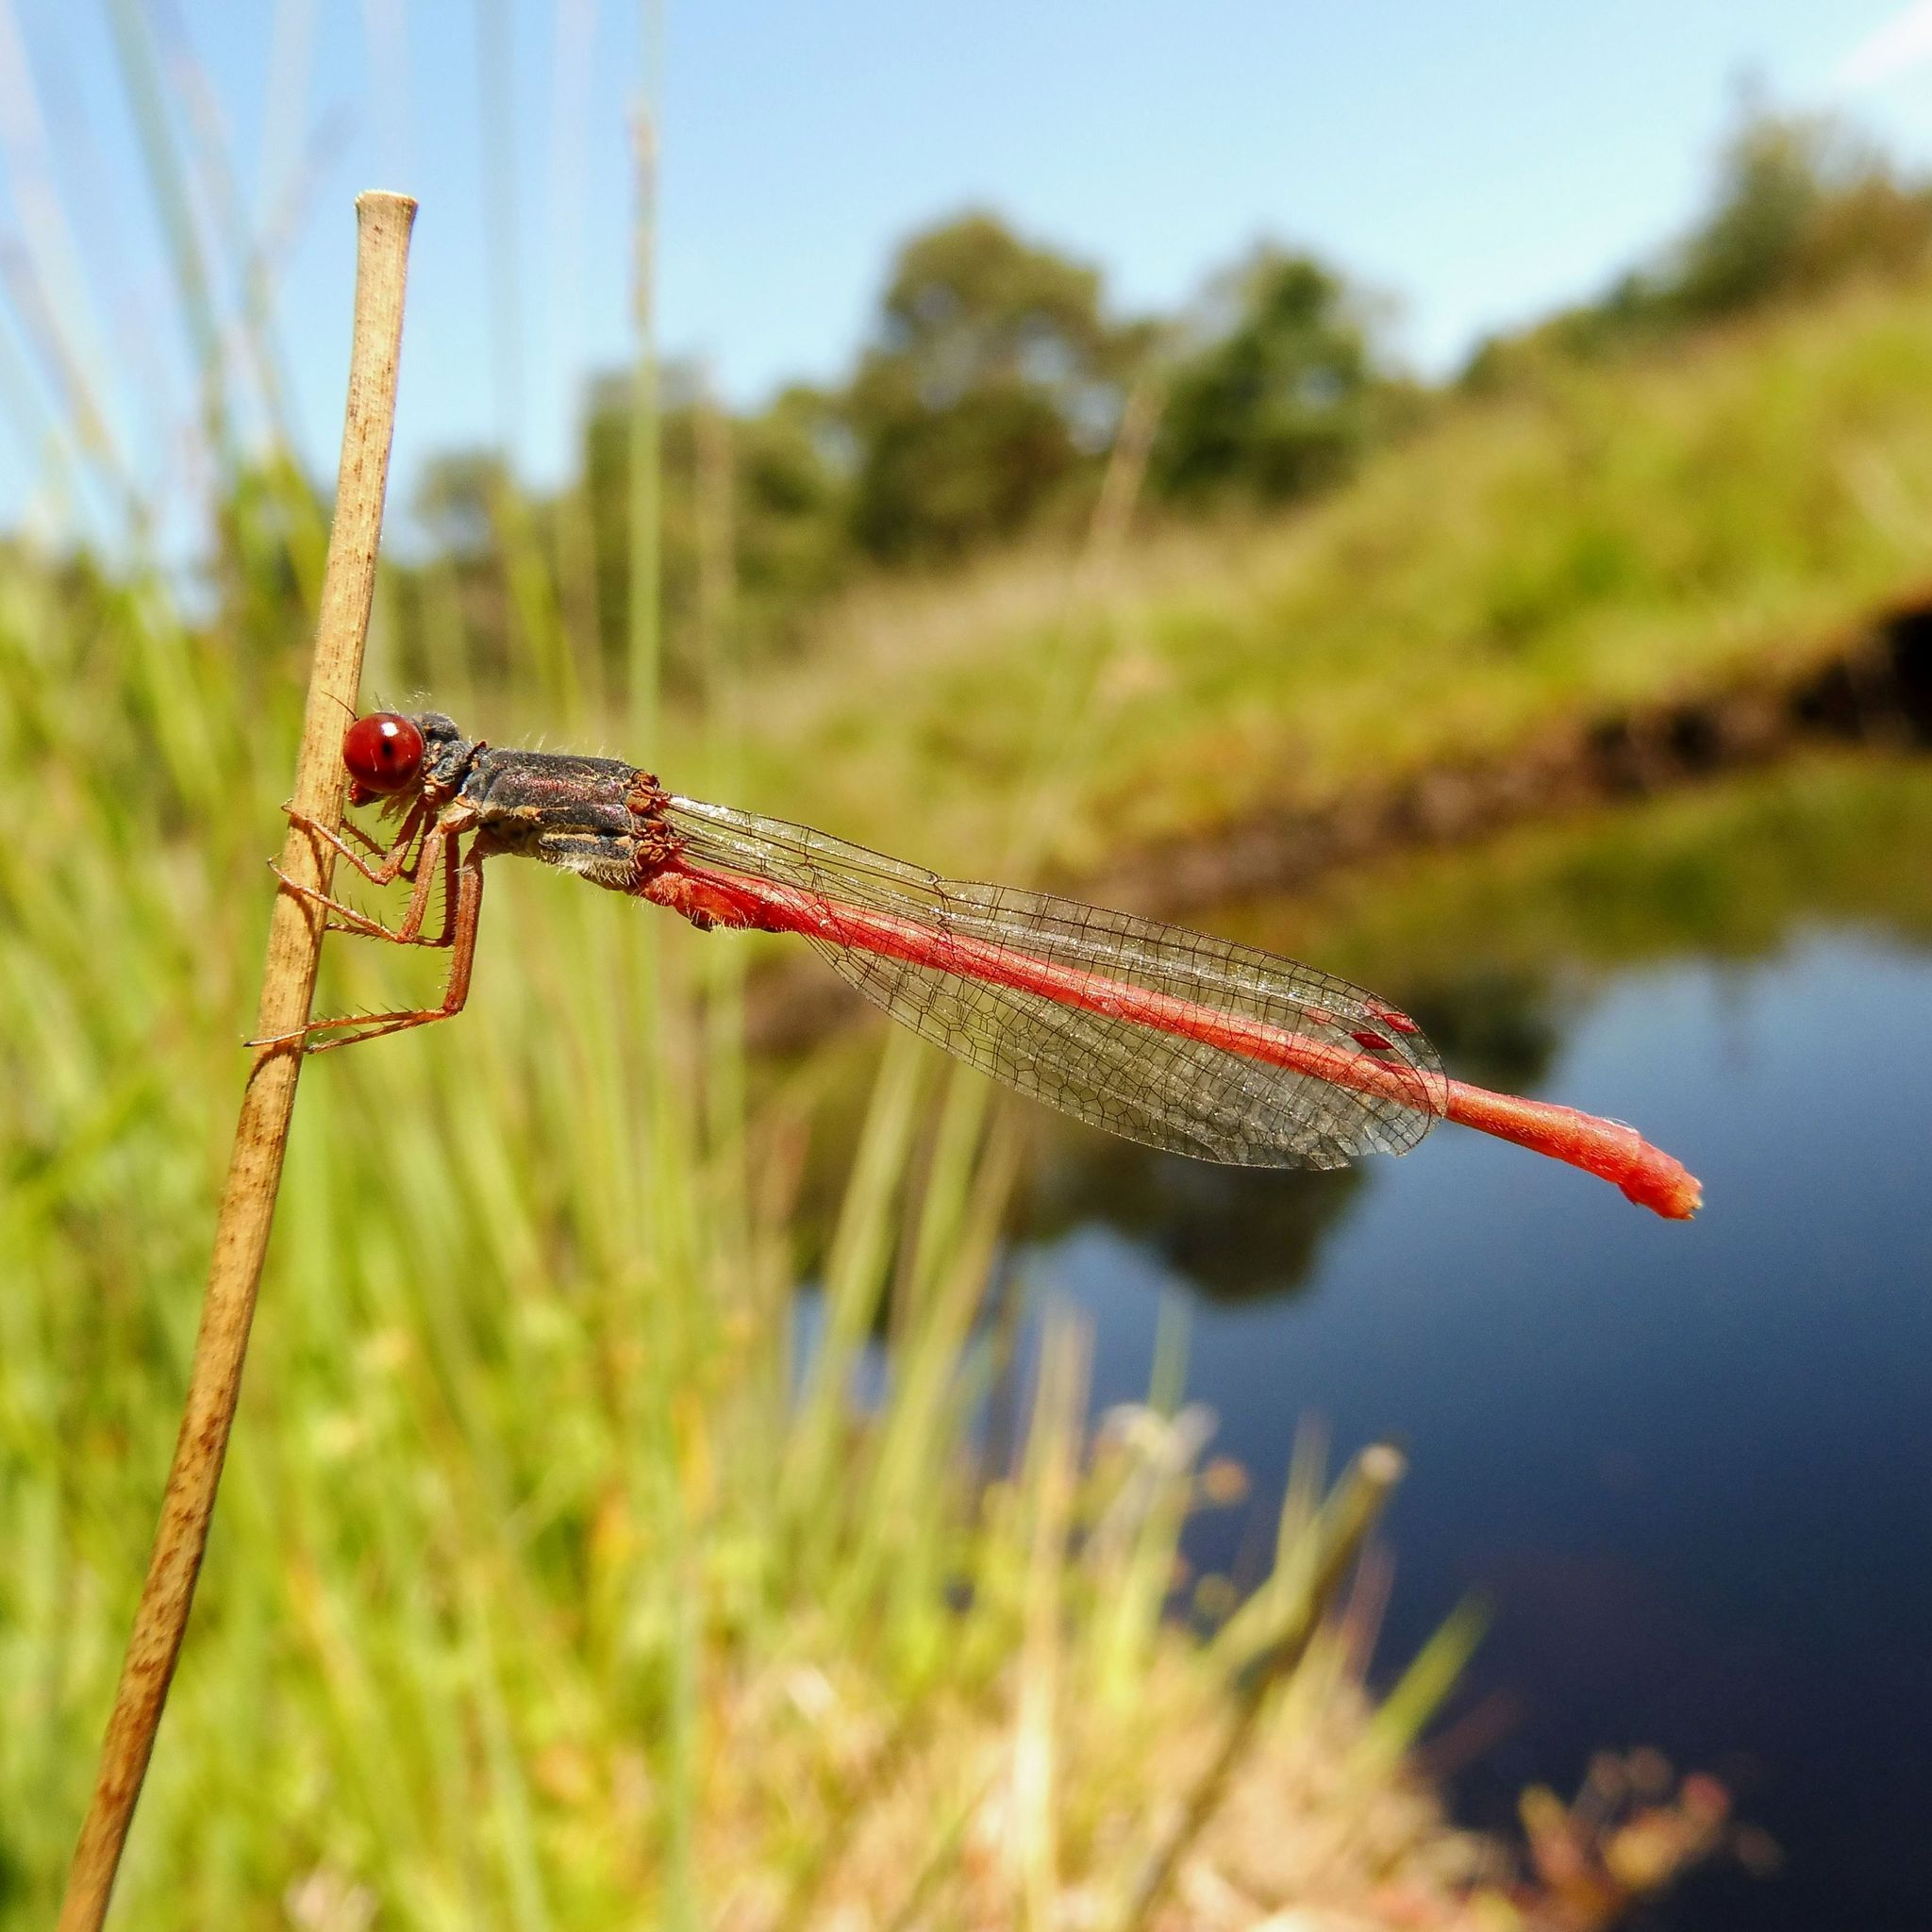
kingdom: Animalia
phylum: Arthropoda
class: Insecta
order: Odonata
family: Coenagrionidae
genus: Ceriagrion
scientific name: Ceriagrion tenellum
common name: Small red damselfly
